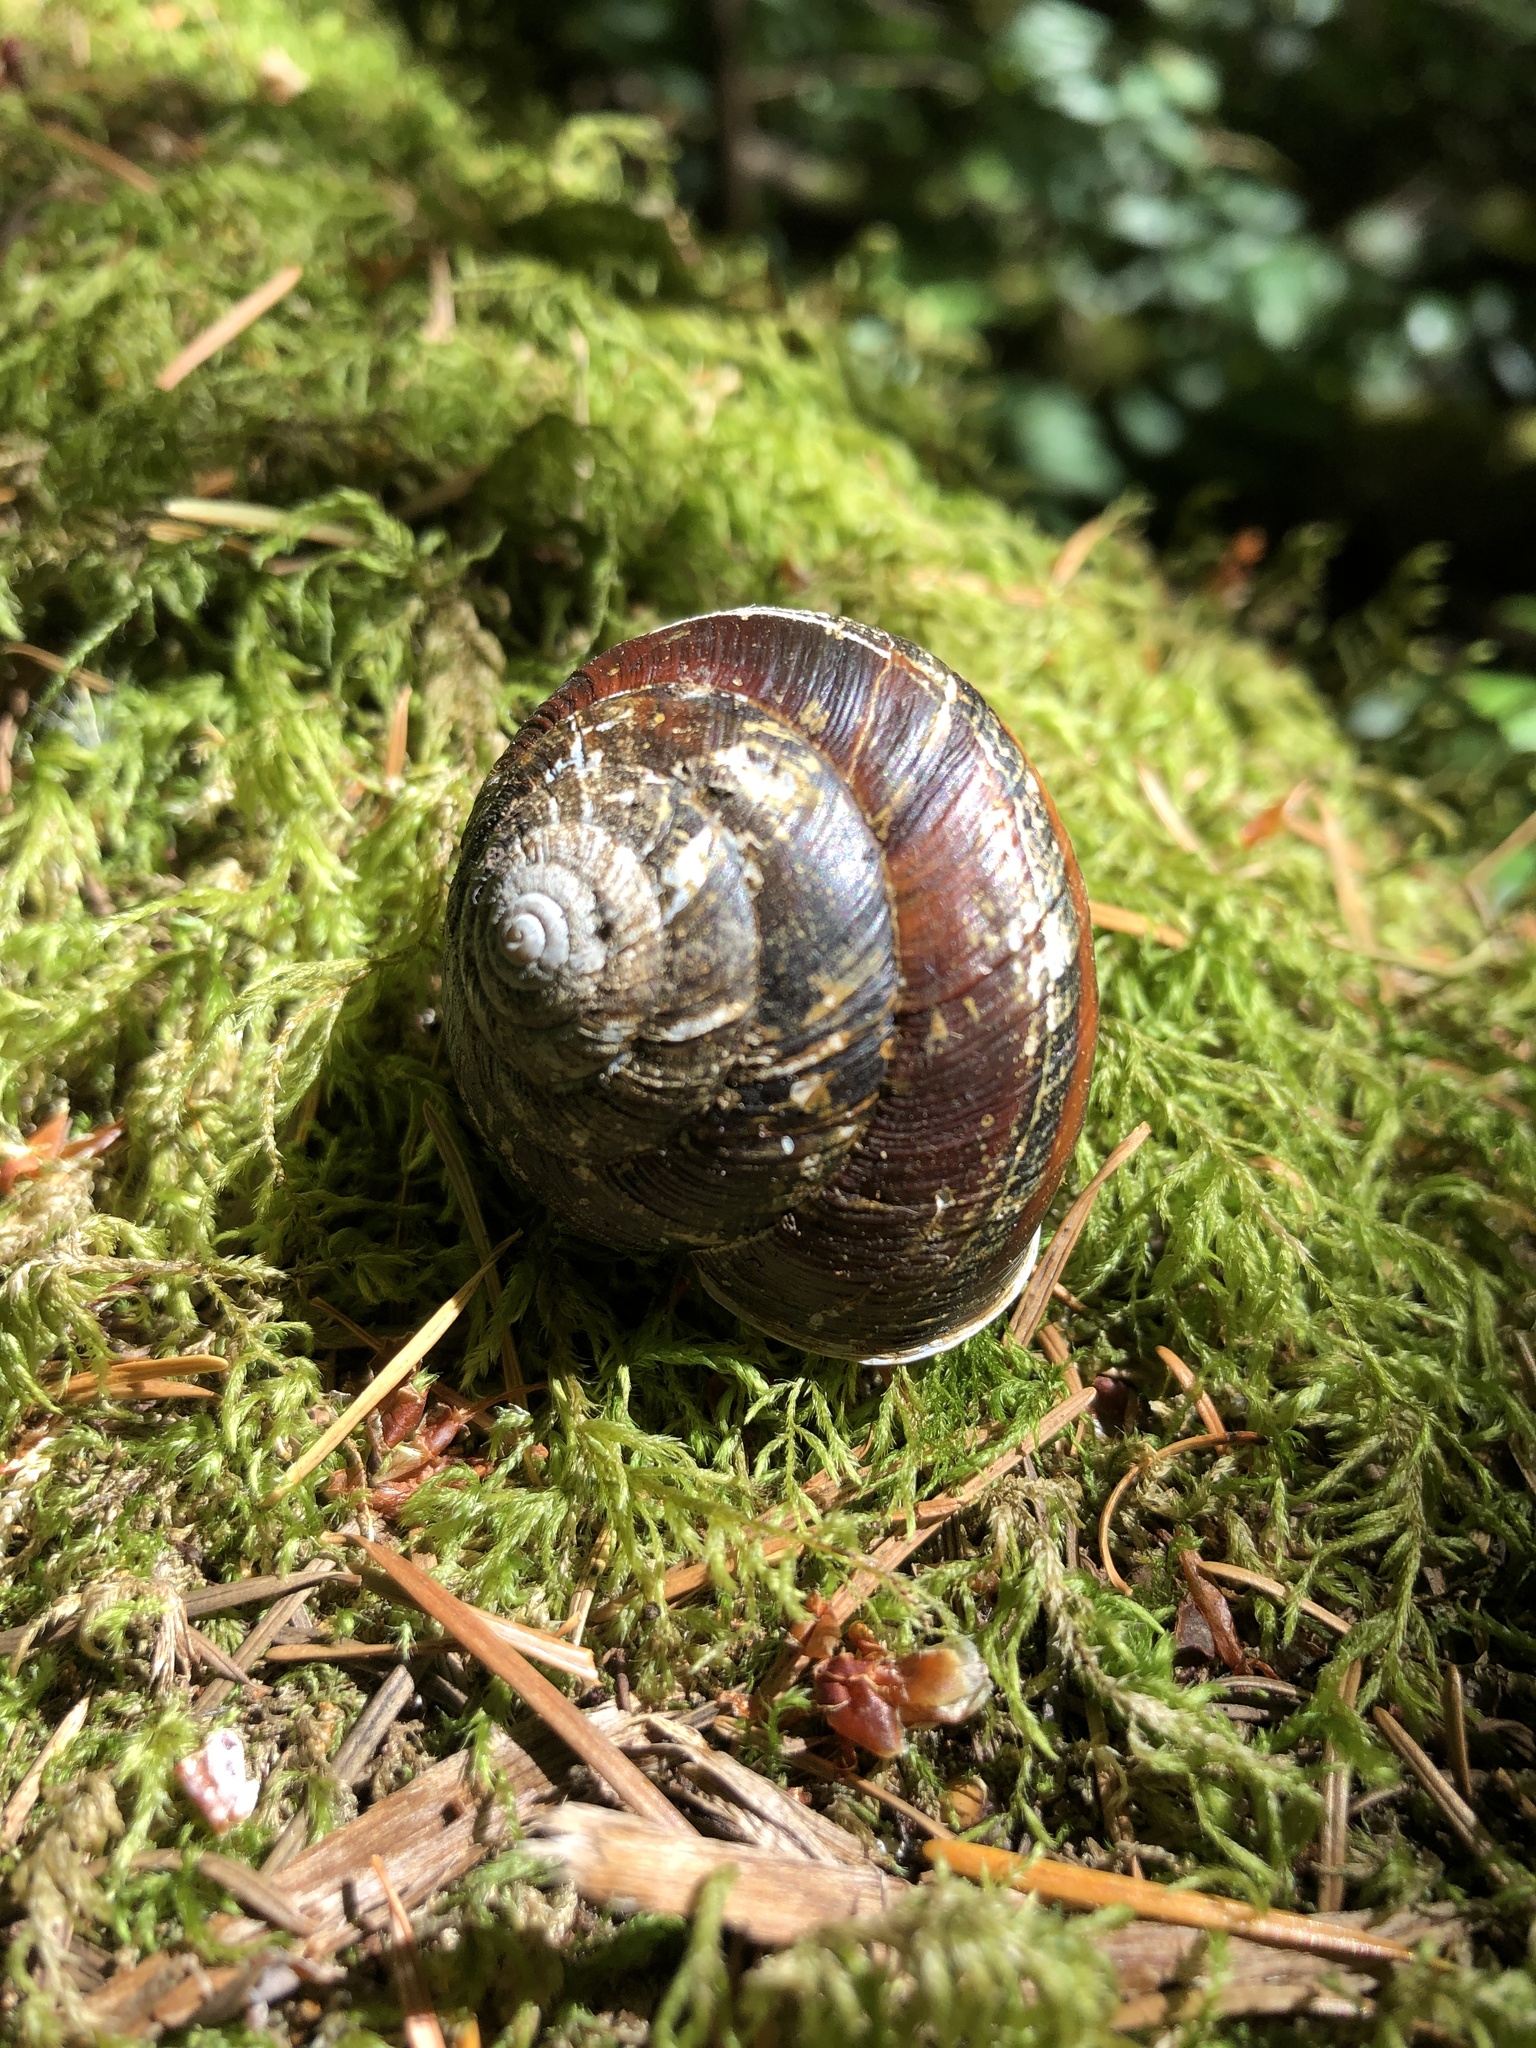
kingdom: Animalia
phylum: Mollusca
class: Gastropoda
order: Stylommatophora
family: Xanthonychidae
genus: Monadenia
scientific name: Monadenia fidelis
